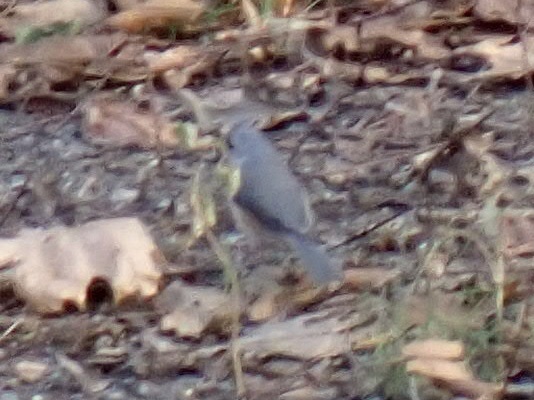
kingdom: Animalia
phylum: Chordata
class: Aves
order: Passeriformes
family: Paridae
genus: Baeolophus
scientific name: Baeolophus bicolor
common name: Tufted titmouse
